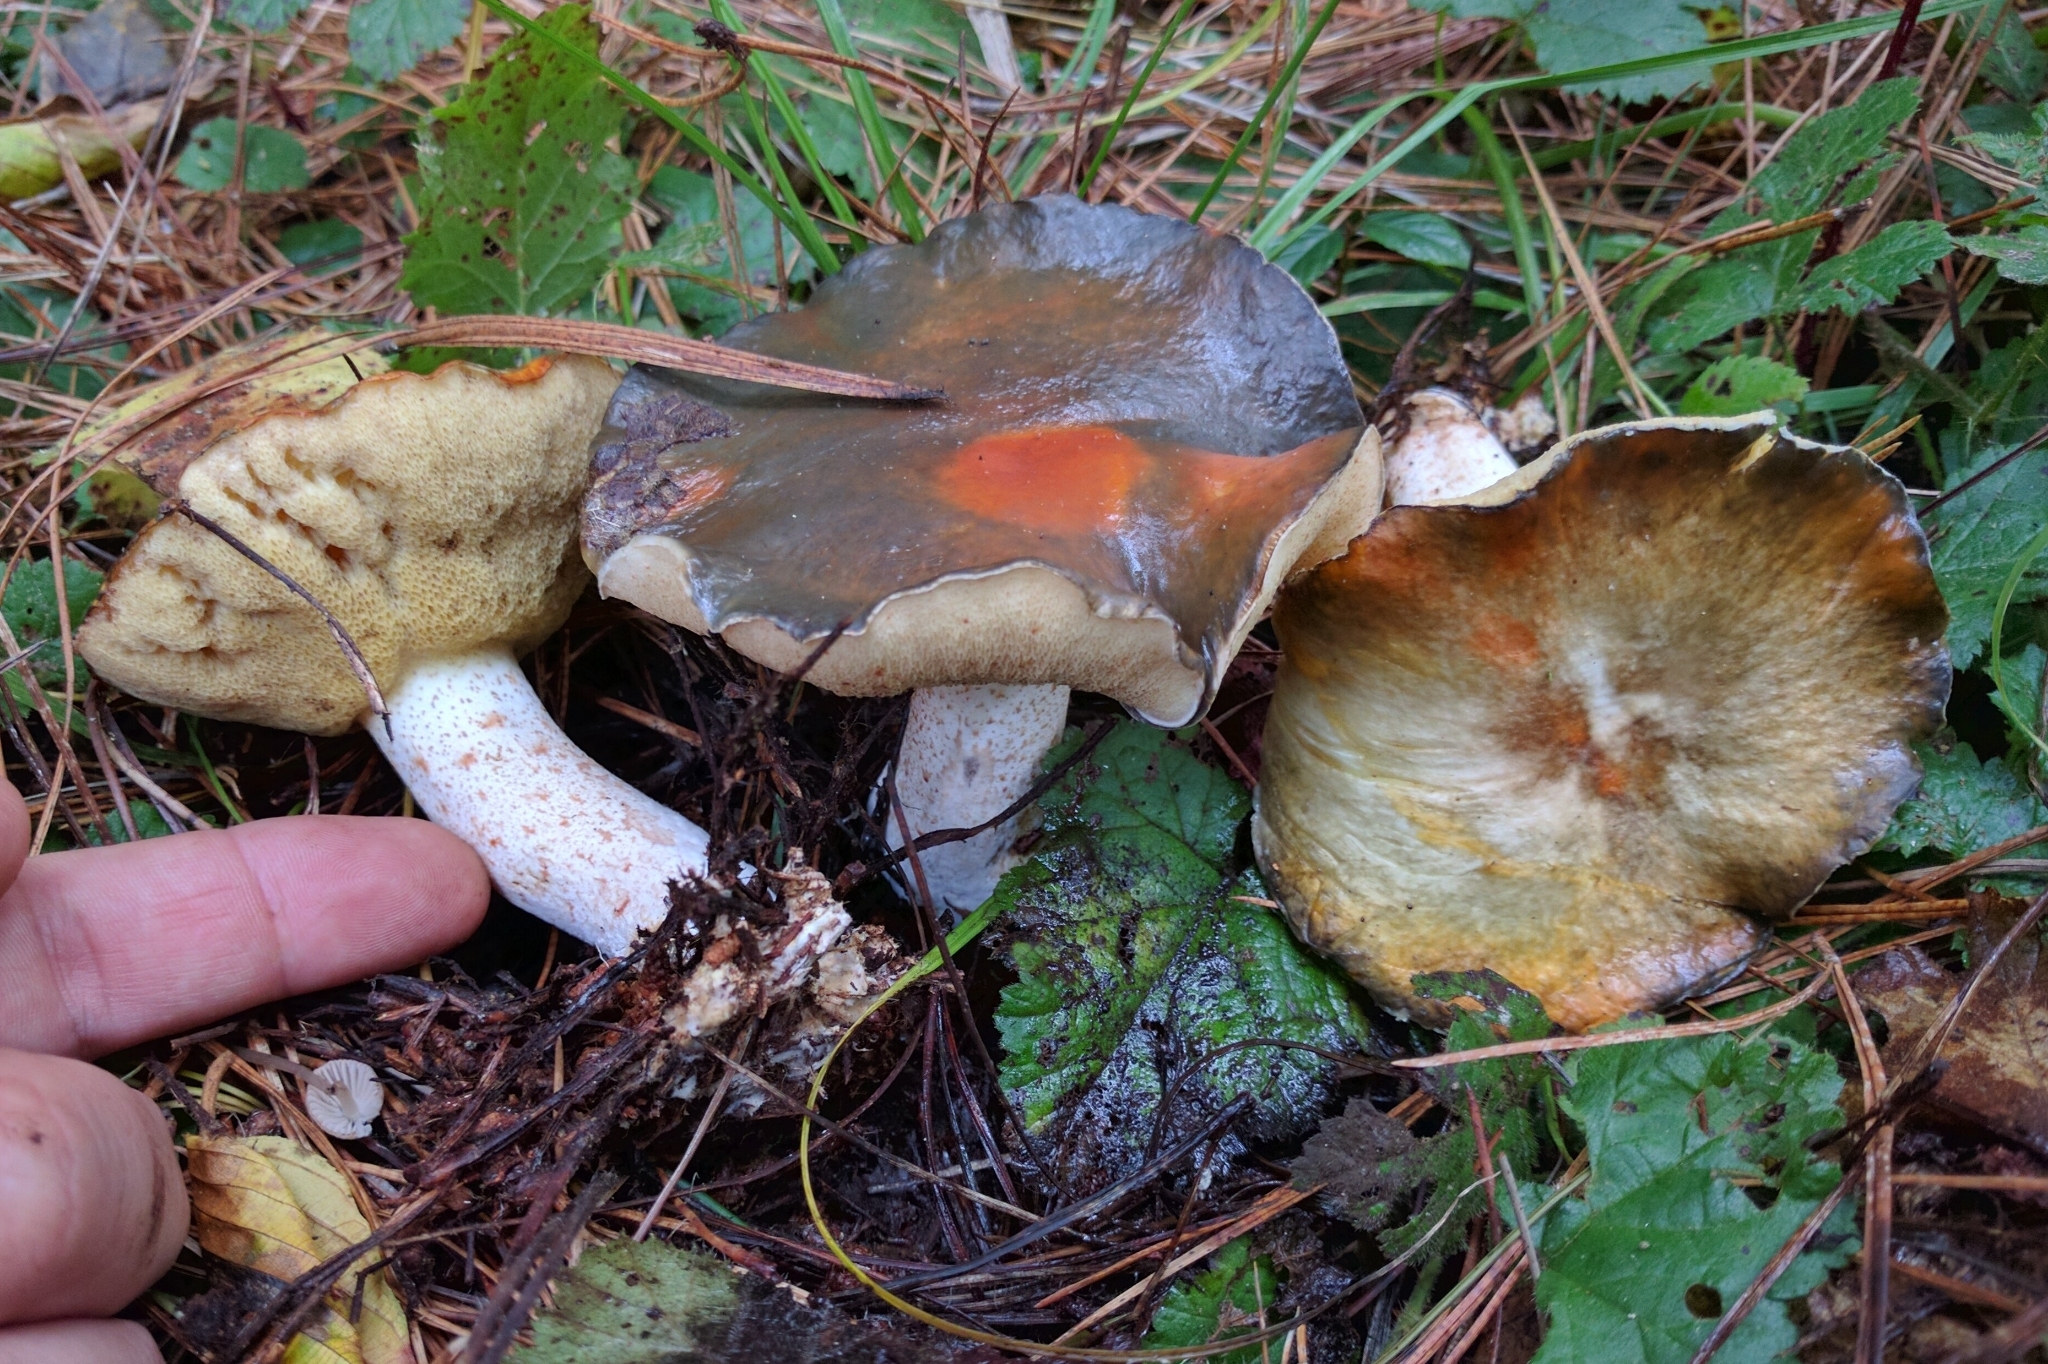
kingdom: Fungi
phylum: Basidiomycota
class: Agaricomycetes
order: Boletales
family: Suillaceae
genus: Suillus
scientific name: Suillus pungens
